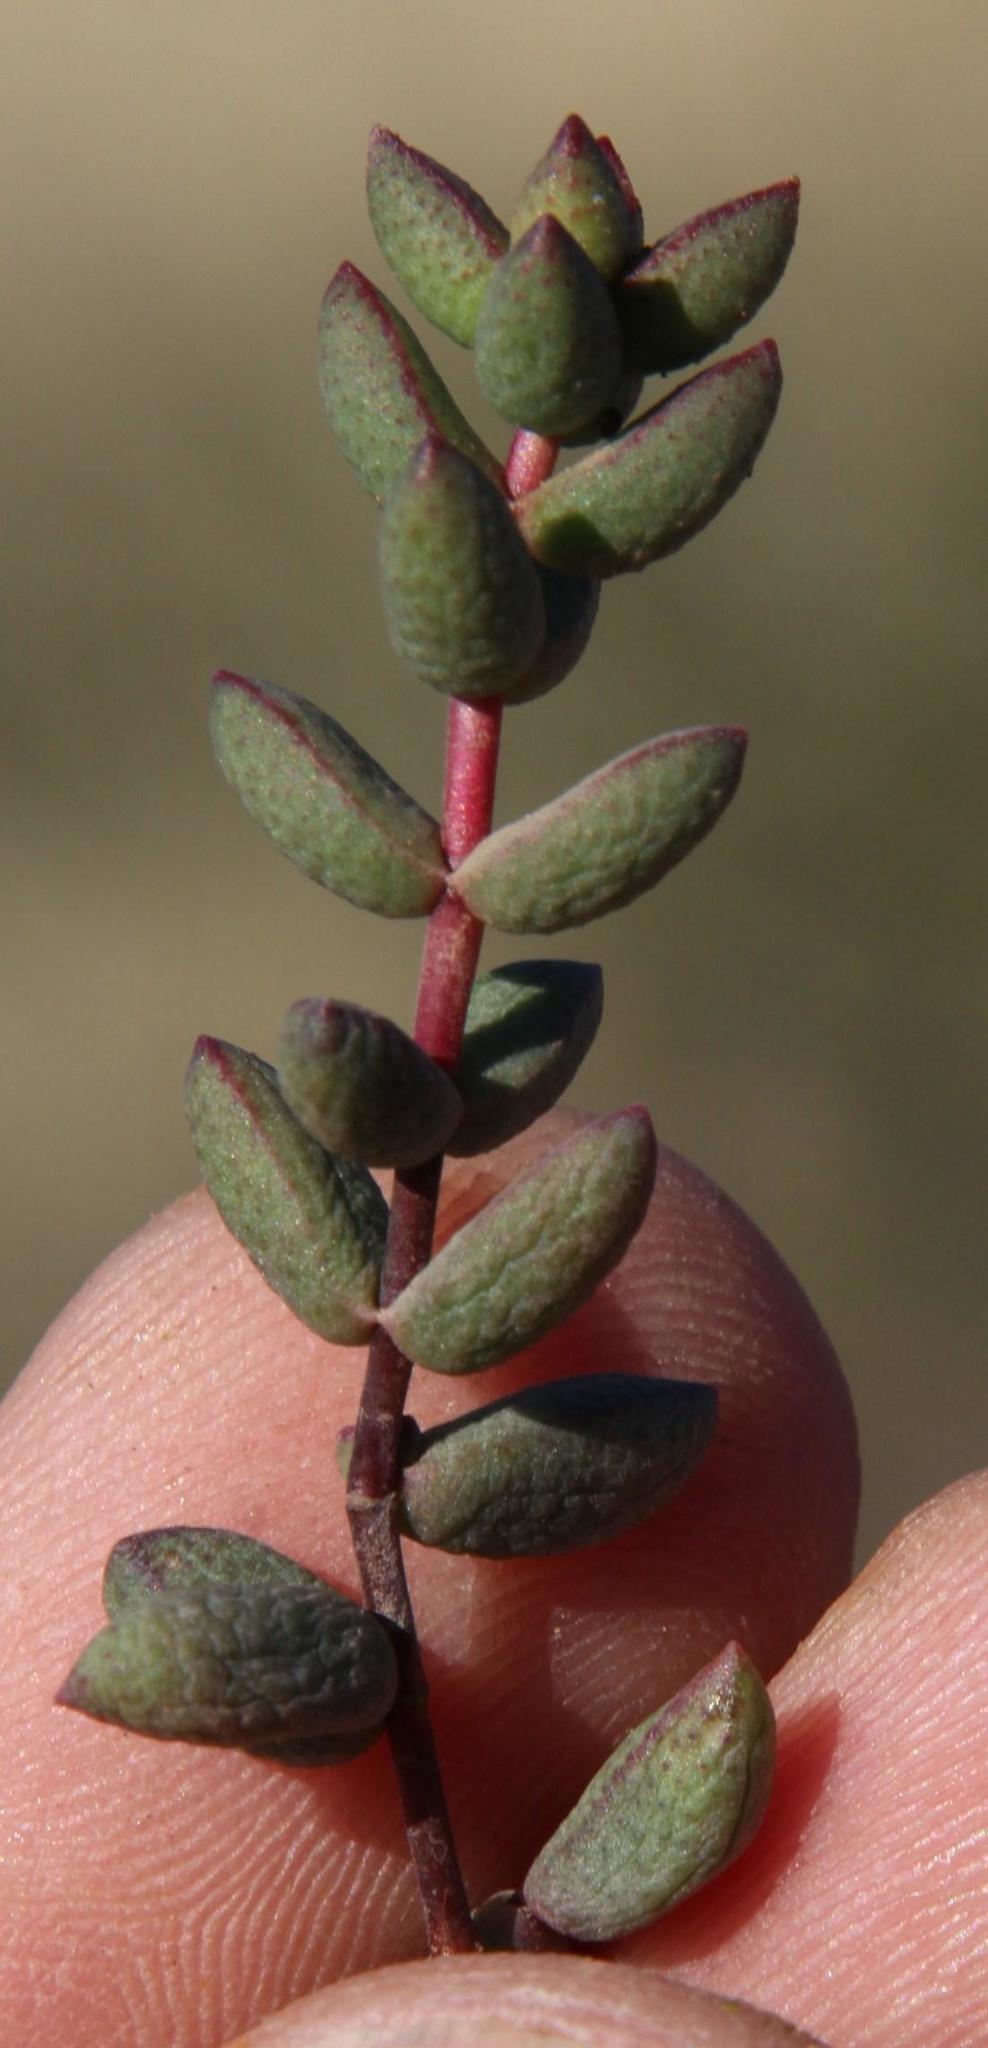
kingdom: Plantae
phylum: Tracheophyta
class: Magnoliopsida
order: Saxifragales
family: Crassulaceae
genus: Crassula
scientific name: Crassula subaphylla
